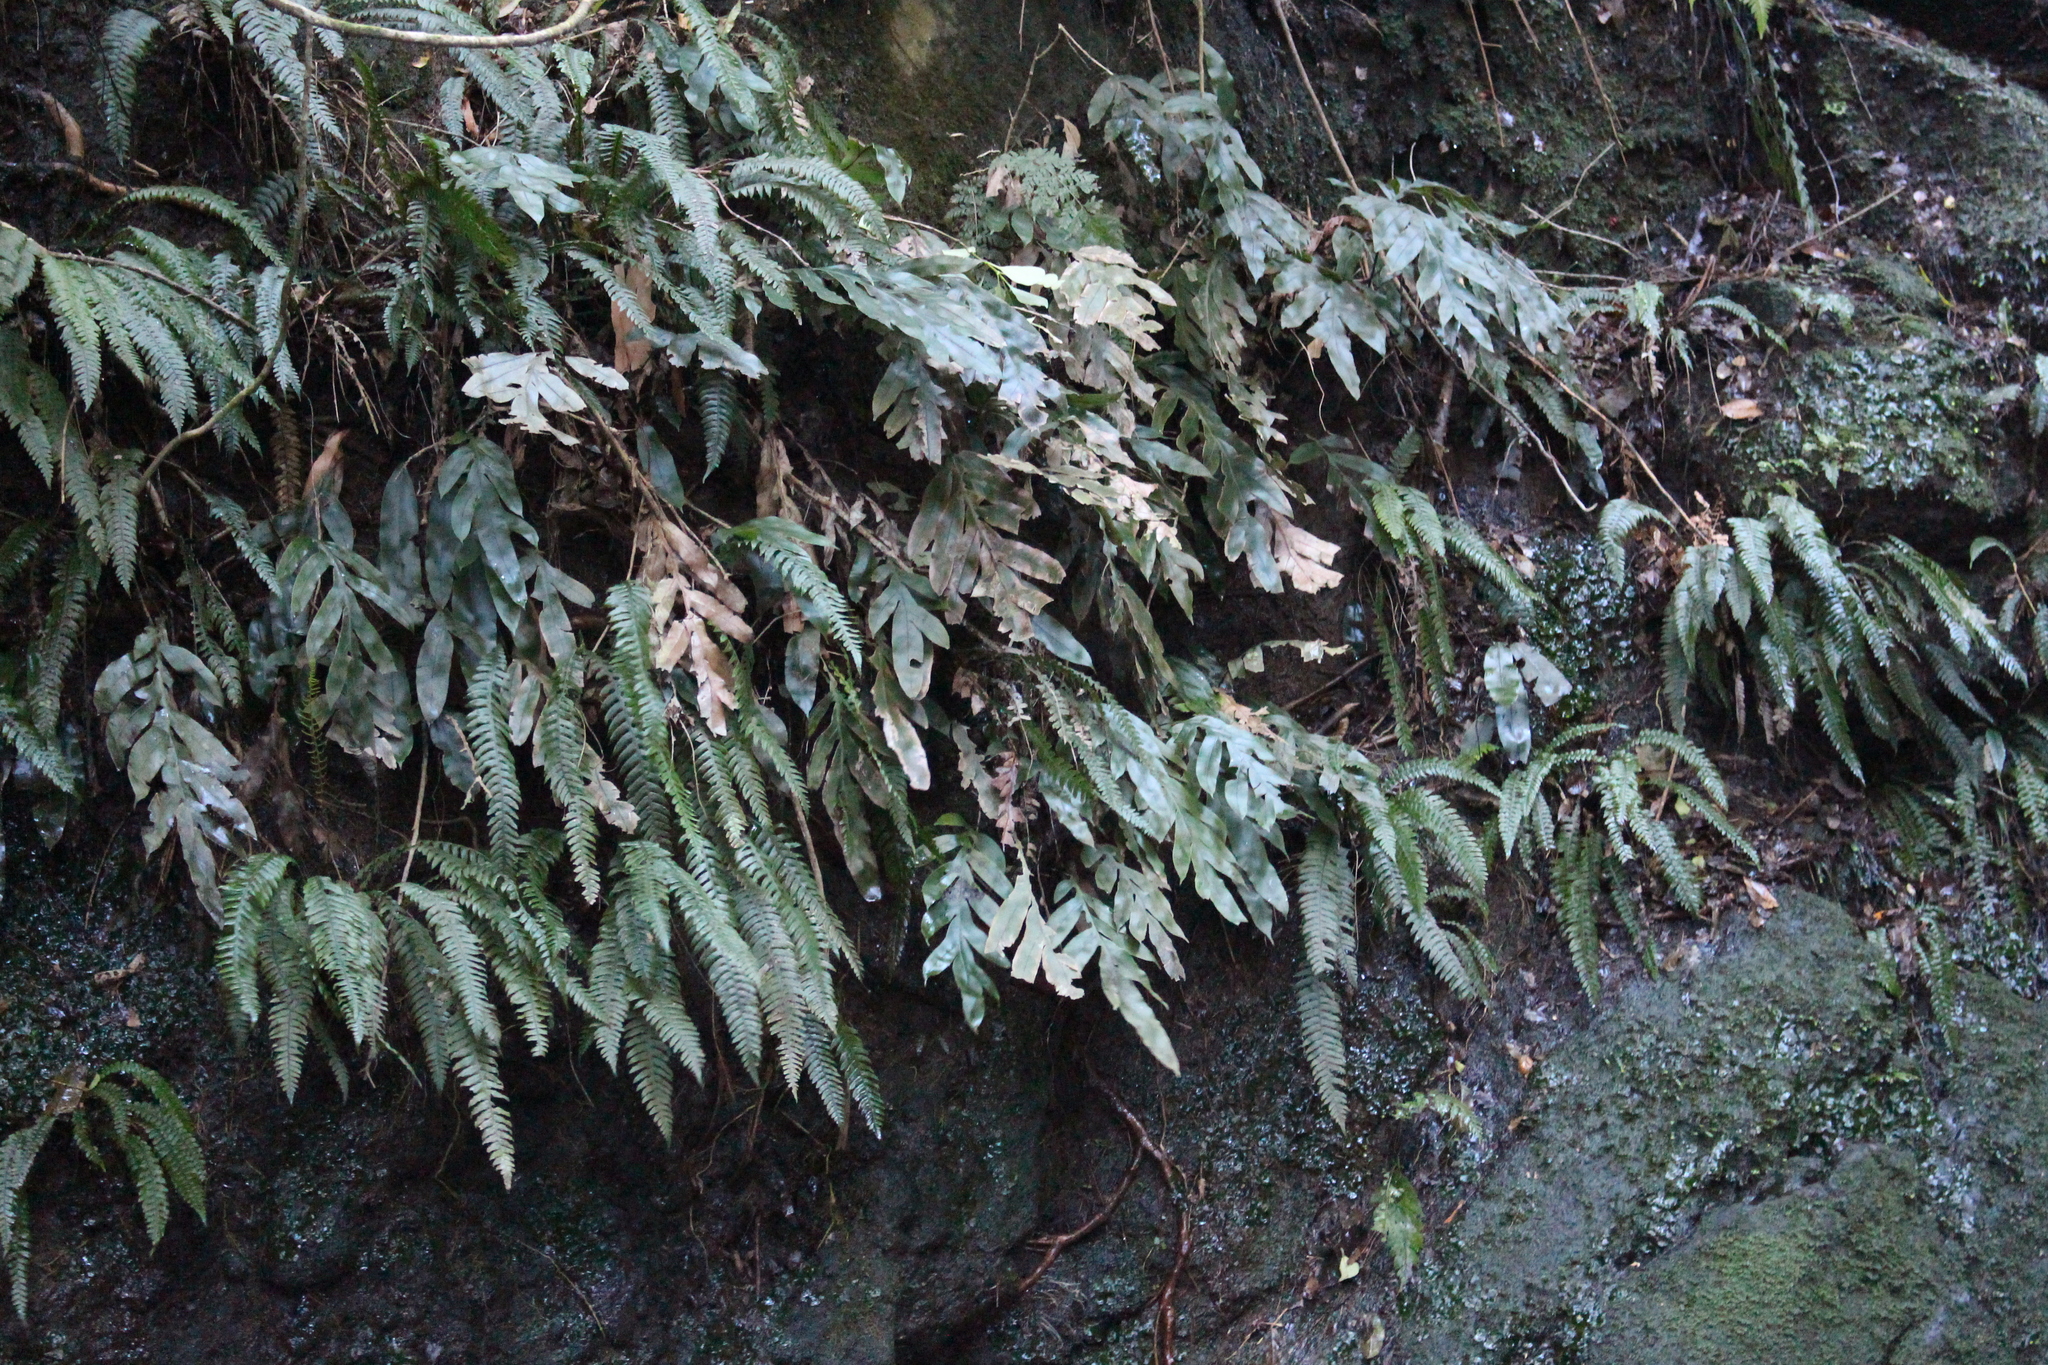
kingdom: Plantae
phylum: Tracheophyta
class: Polypodiopsida
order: Polypodiales
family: Blechnaceae
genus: Austroblechnum
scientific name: Austroblechnum colensoi
